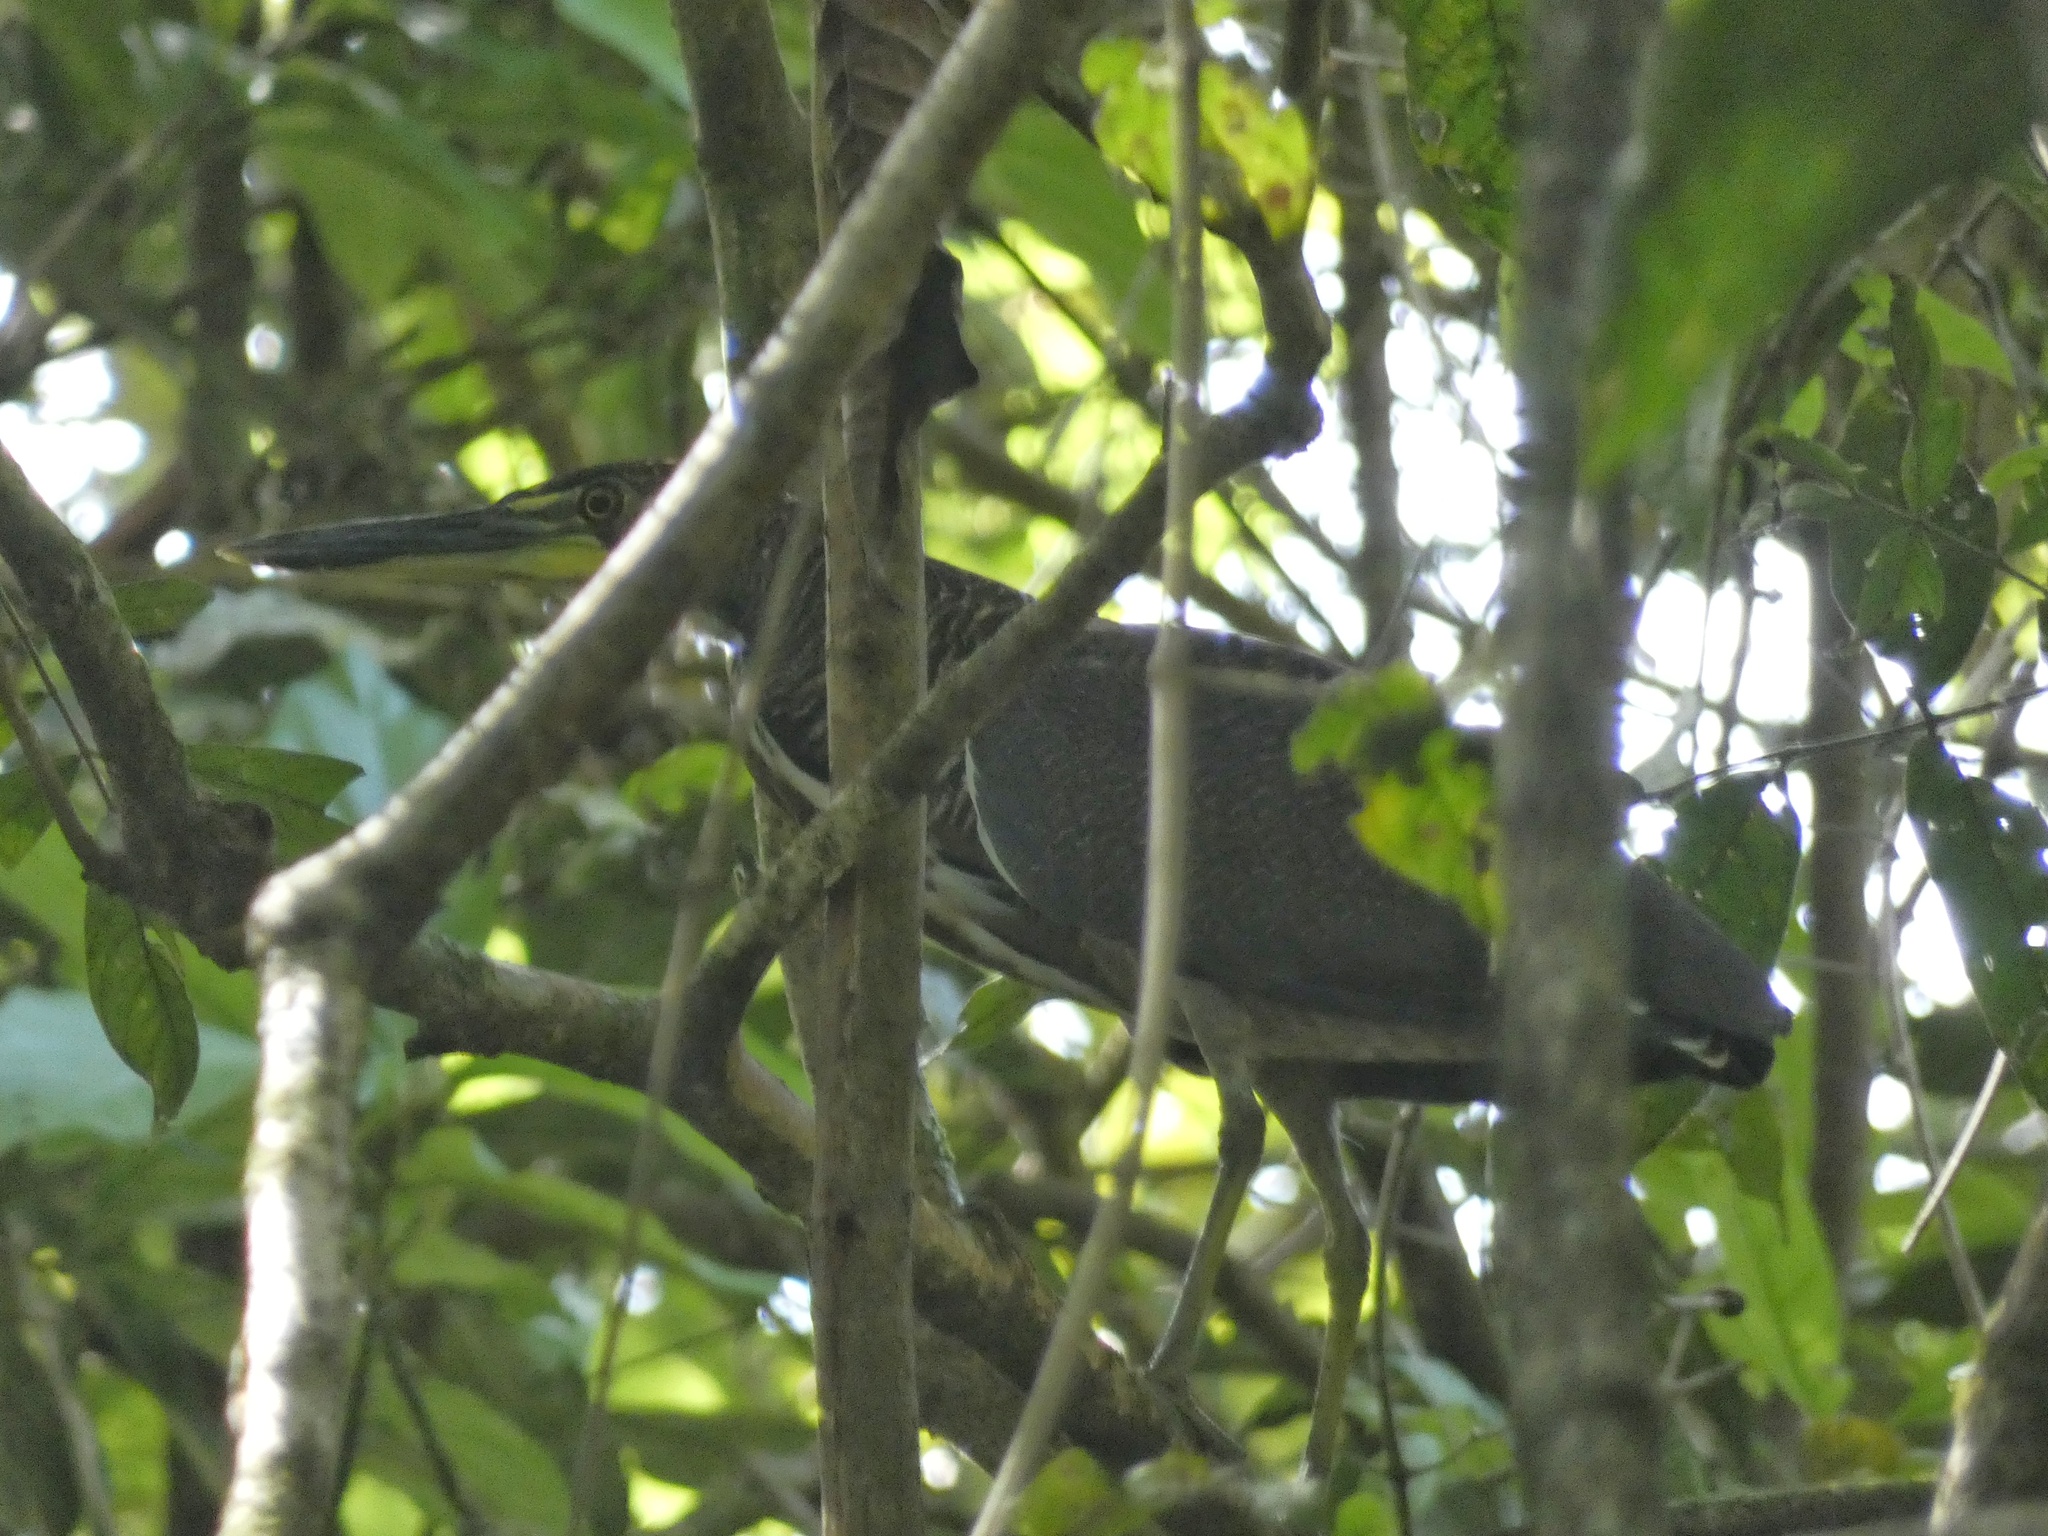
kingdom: Animalia
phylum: Chordata
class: Aves
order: Pelecaniformes
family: Ardeidae
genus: Tigrisoma
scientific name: Tigrisoma fasciatum
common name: Fasciated tiger-heron
